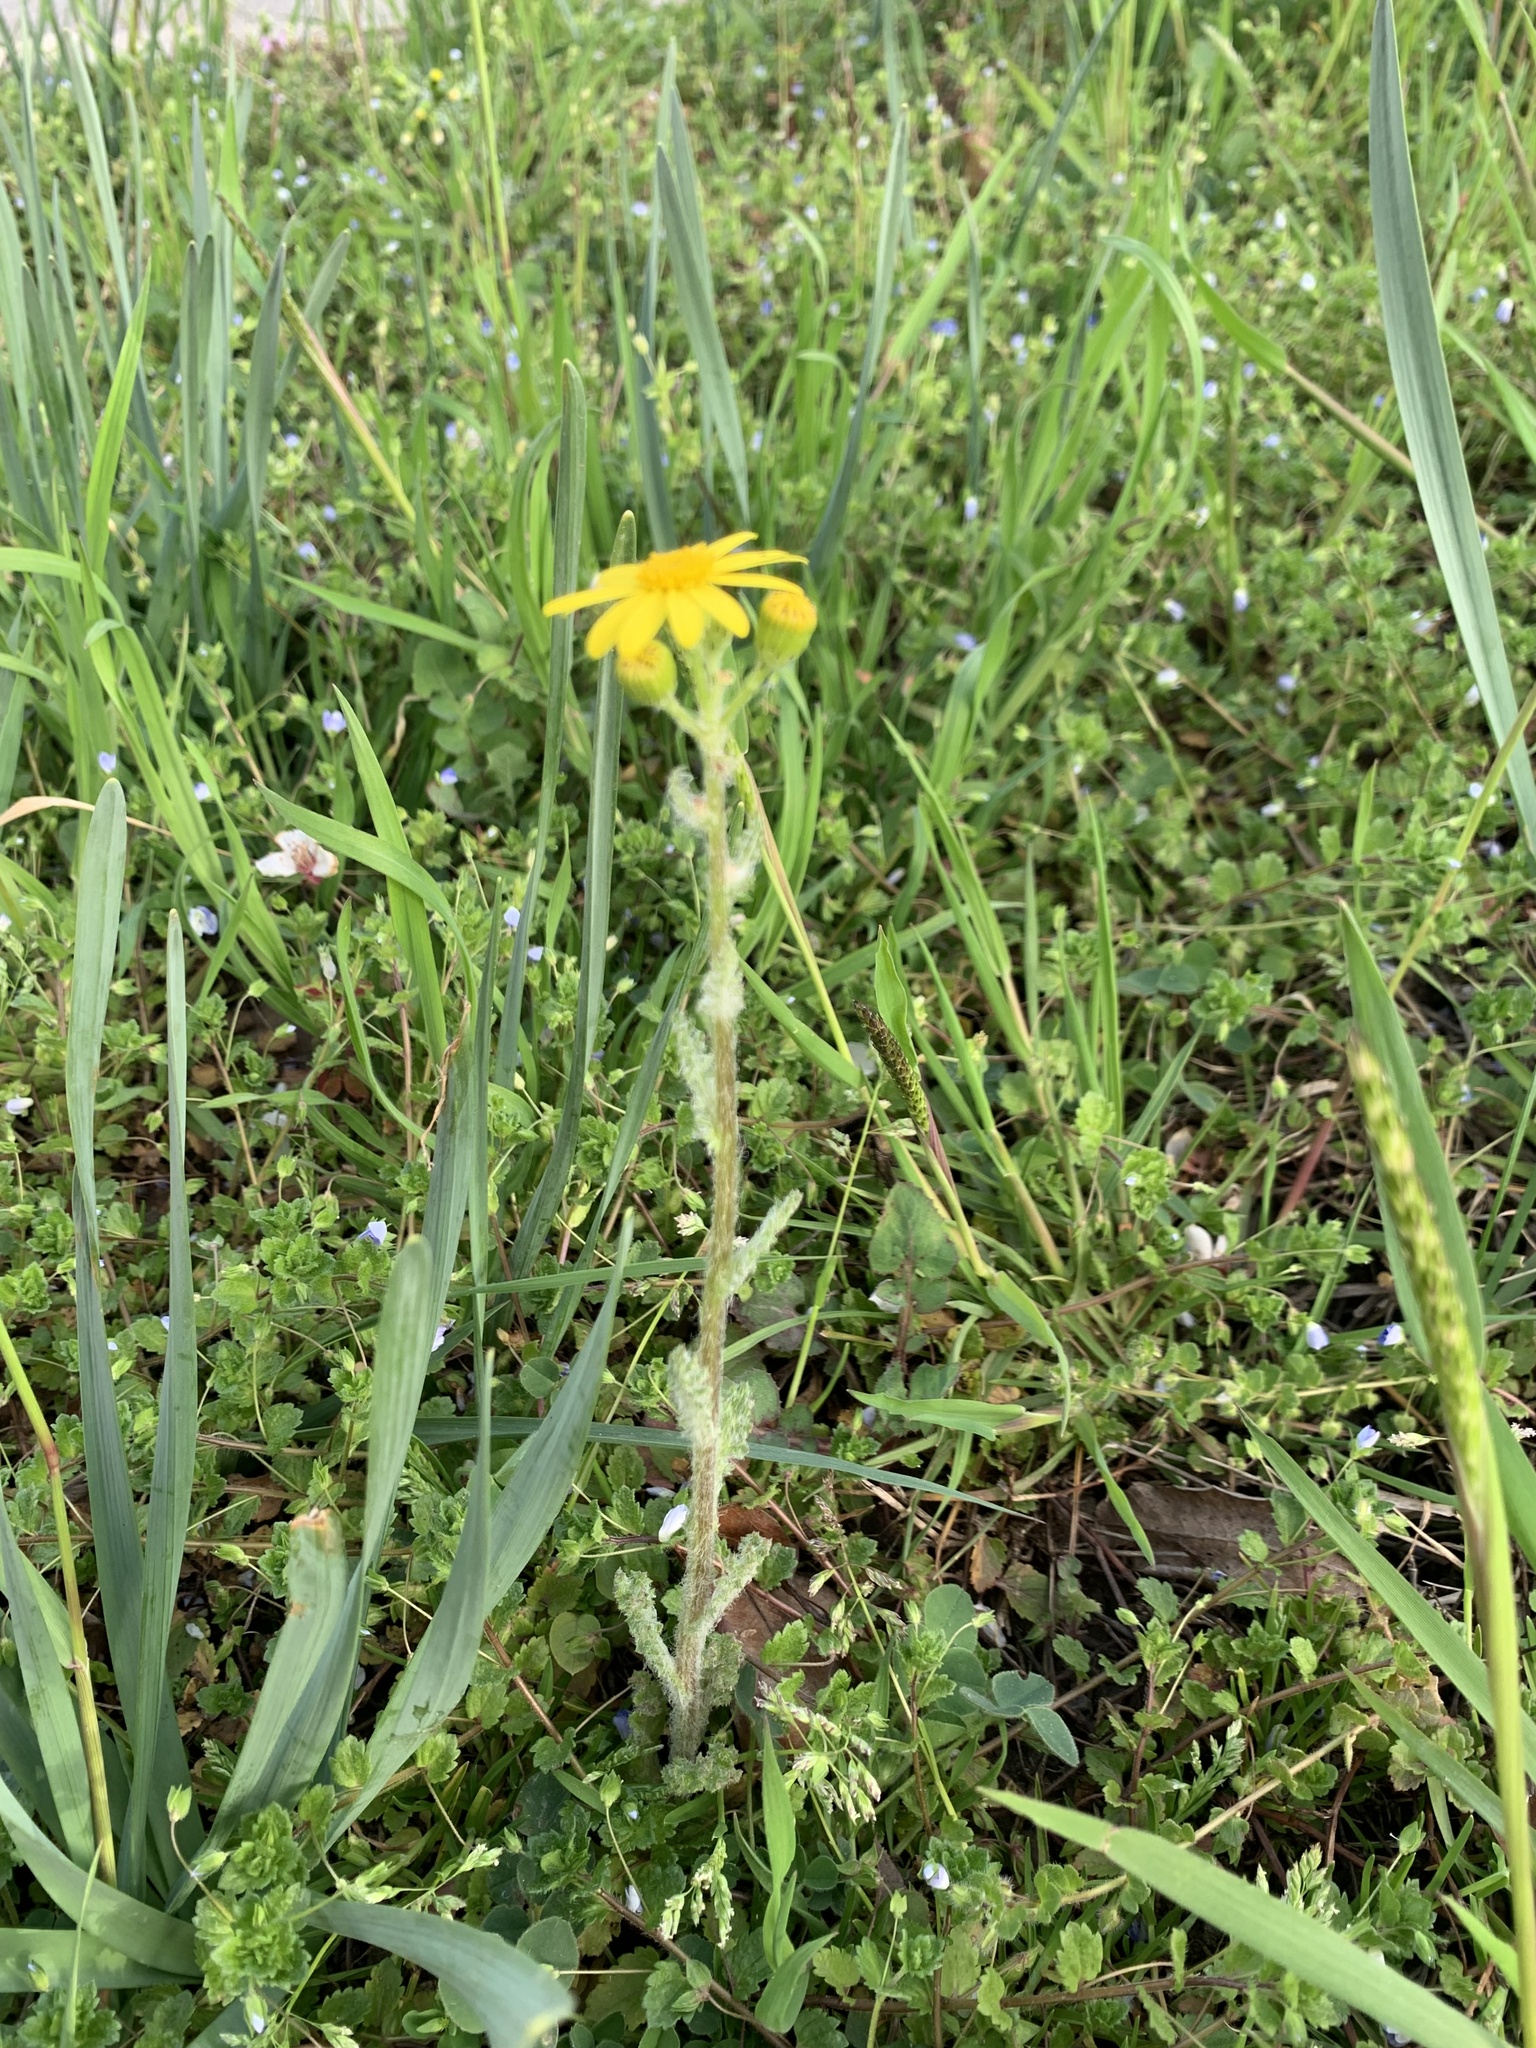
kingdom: Plantae
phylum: Tracheophyta
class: Magnoliopsida
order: Asterales
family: Asteraceae
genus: Senecio
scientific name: Senecio vernalis
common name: Eastern groundsel
